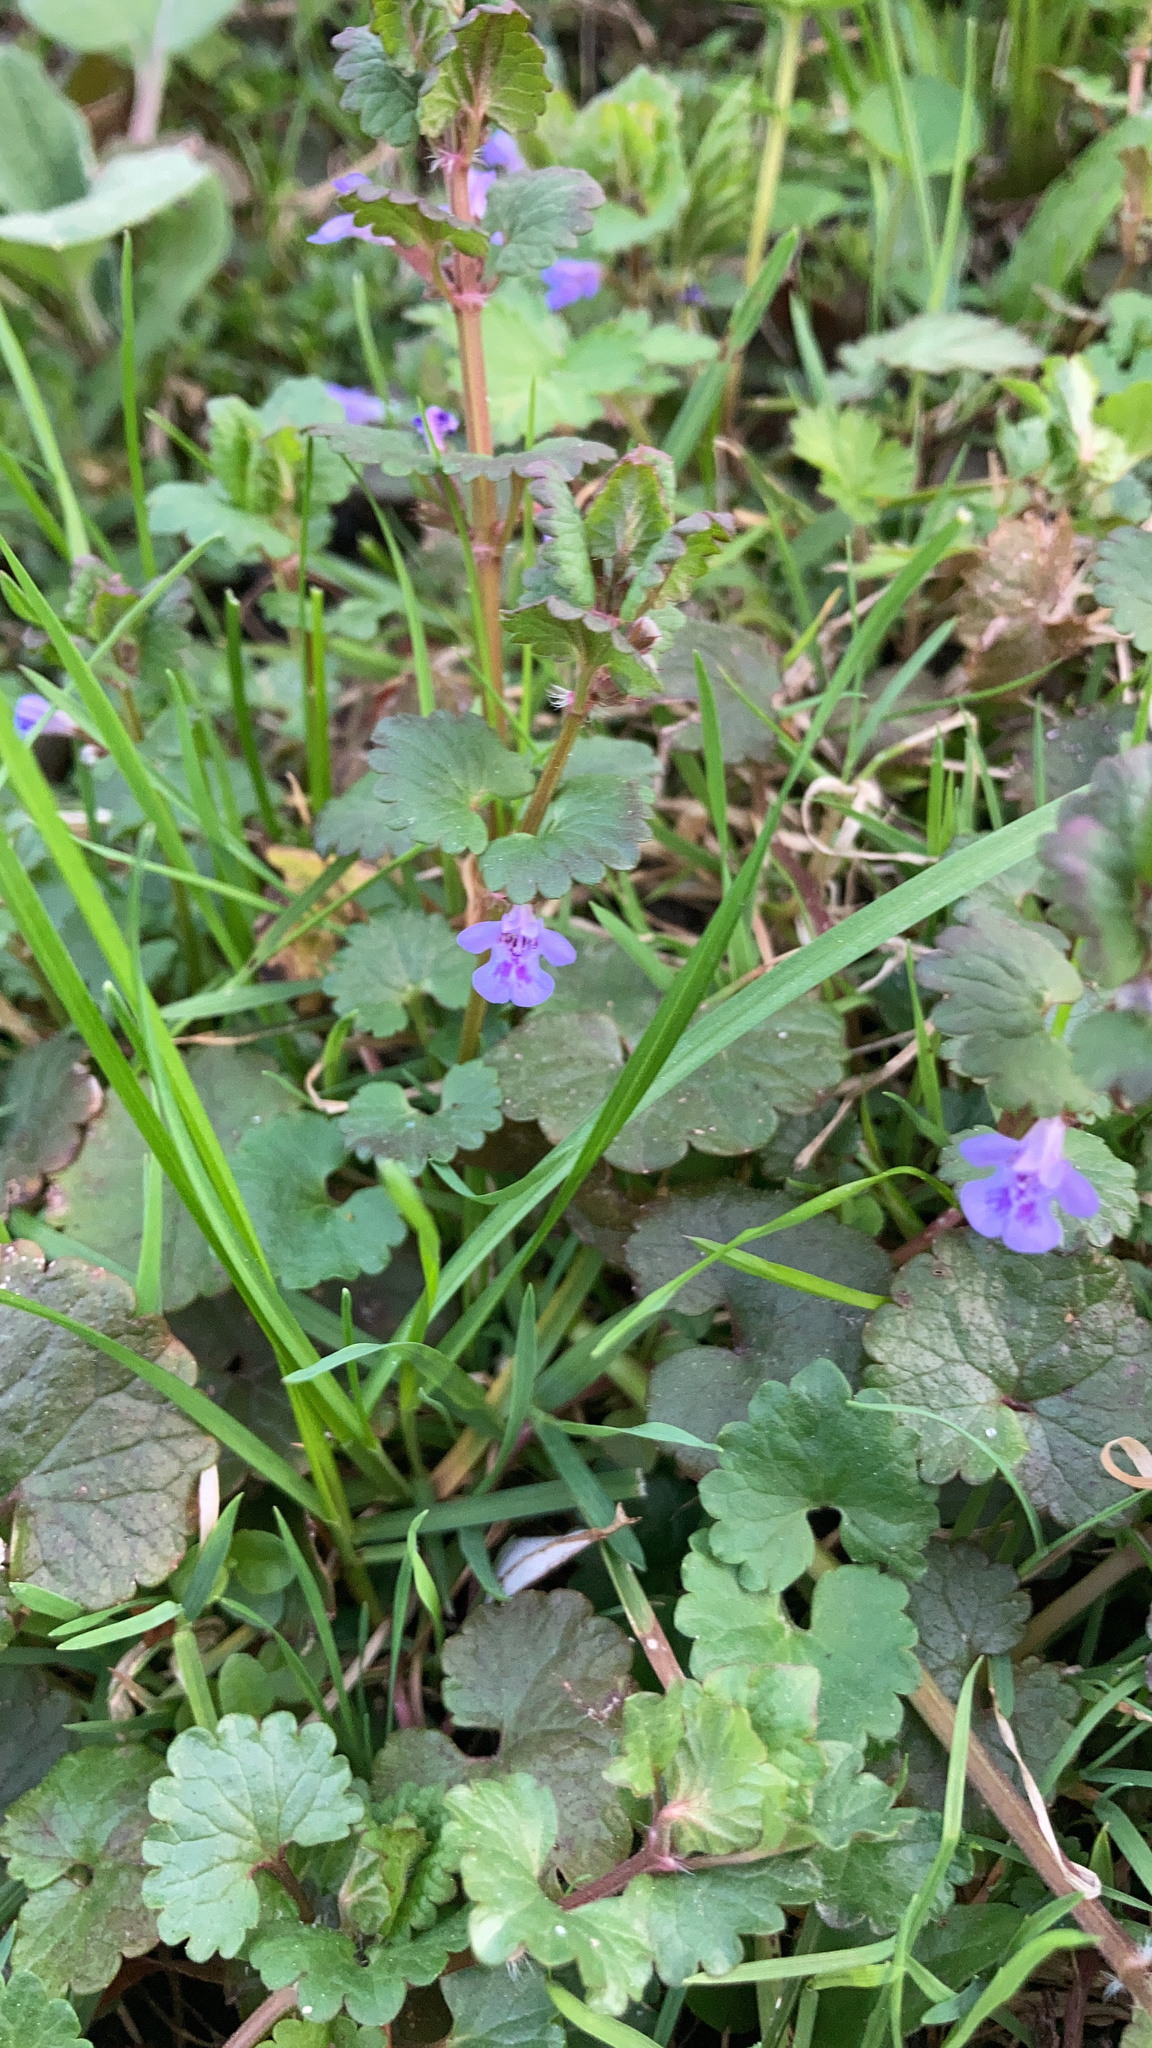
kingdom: Plantae
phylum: Tracheophyta
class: Magnoliopsida
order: Lamiales
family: Lamiaceae
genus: Glechoma
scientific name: Glechoma hederacea
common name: Ground ivy
